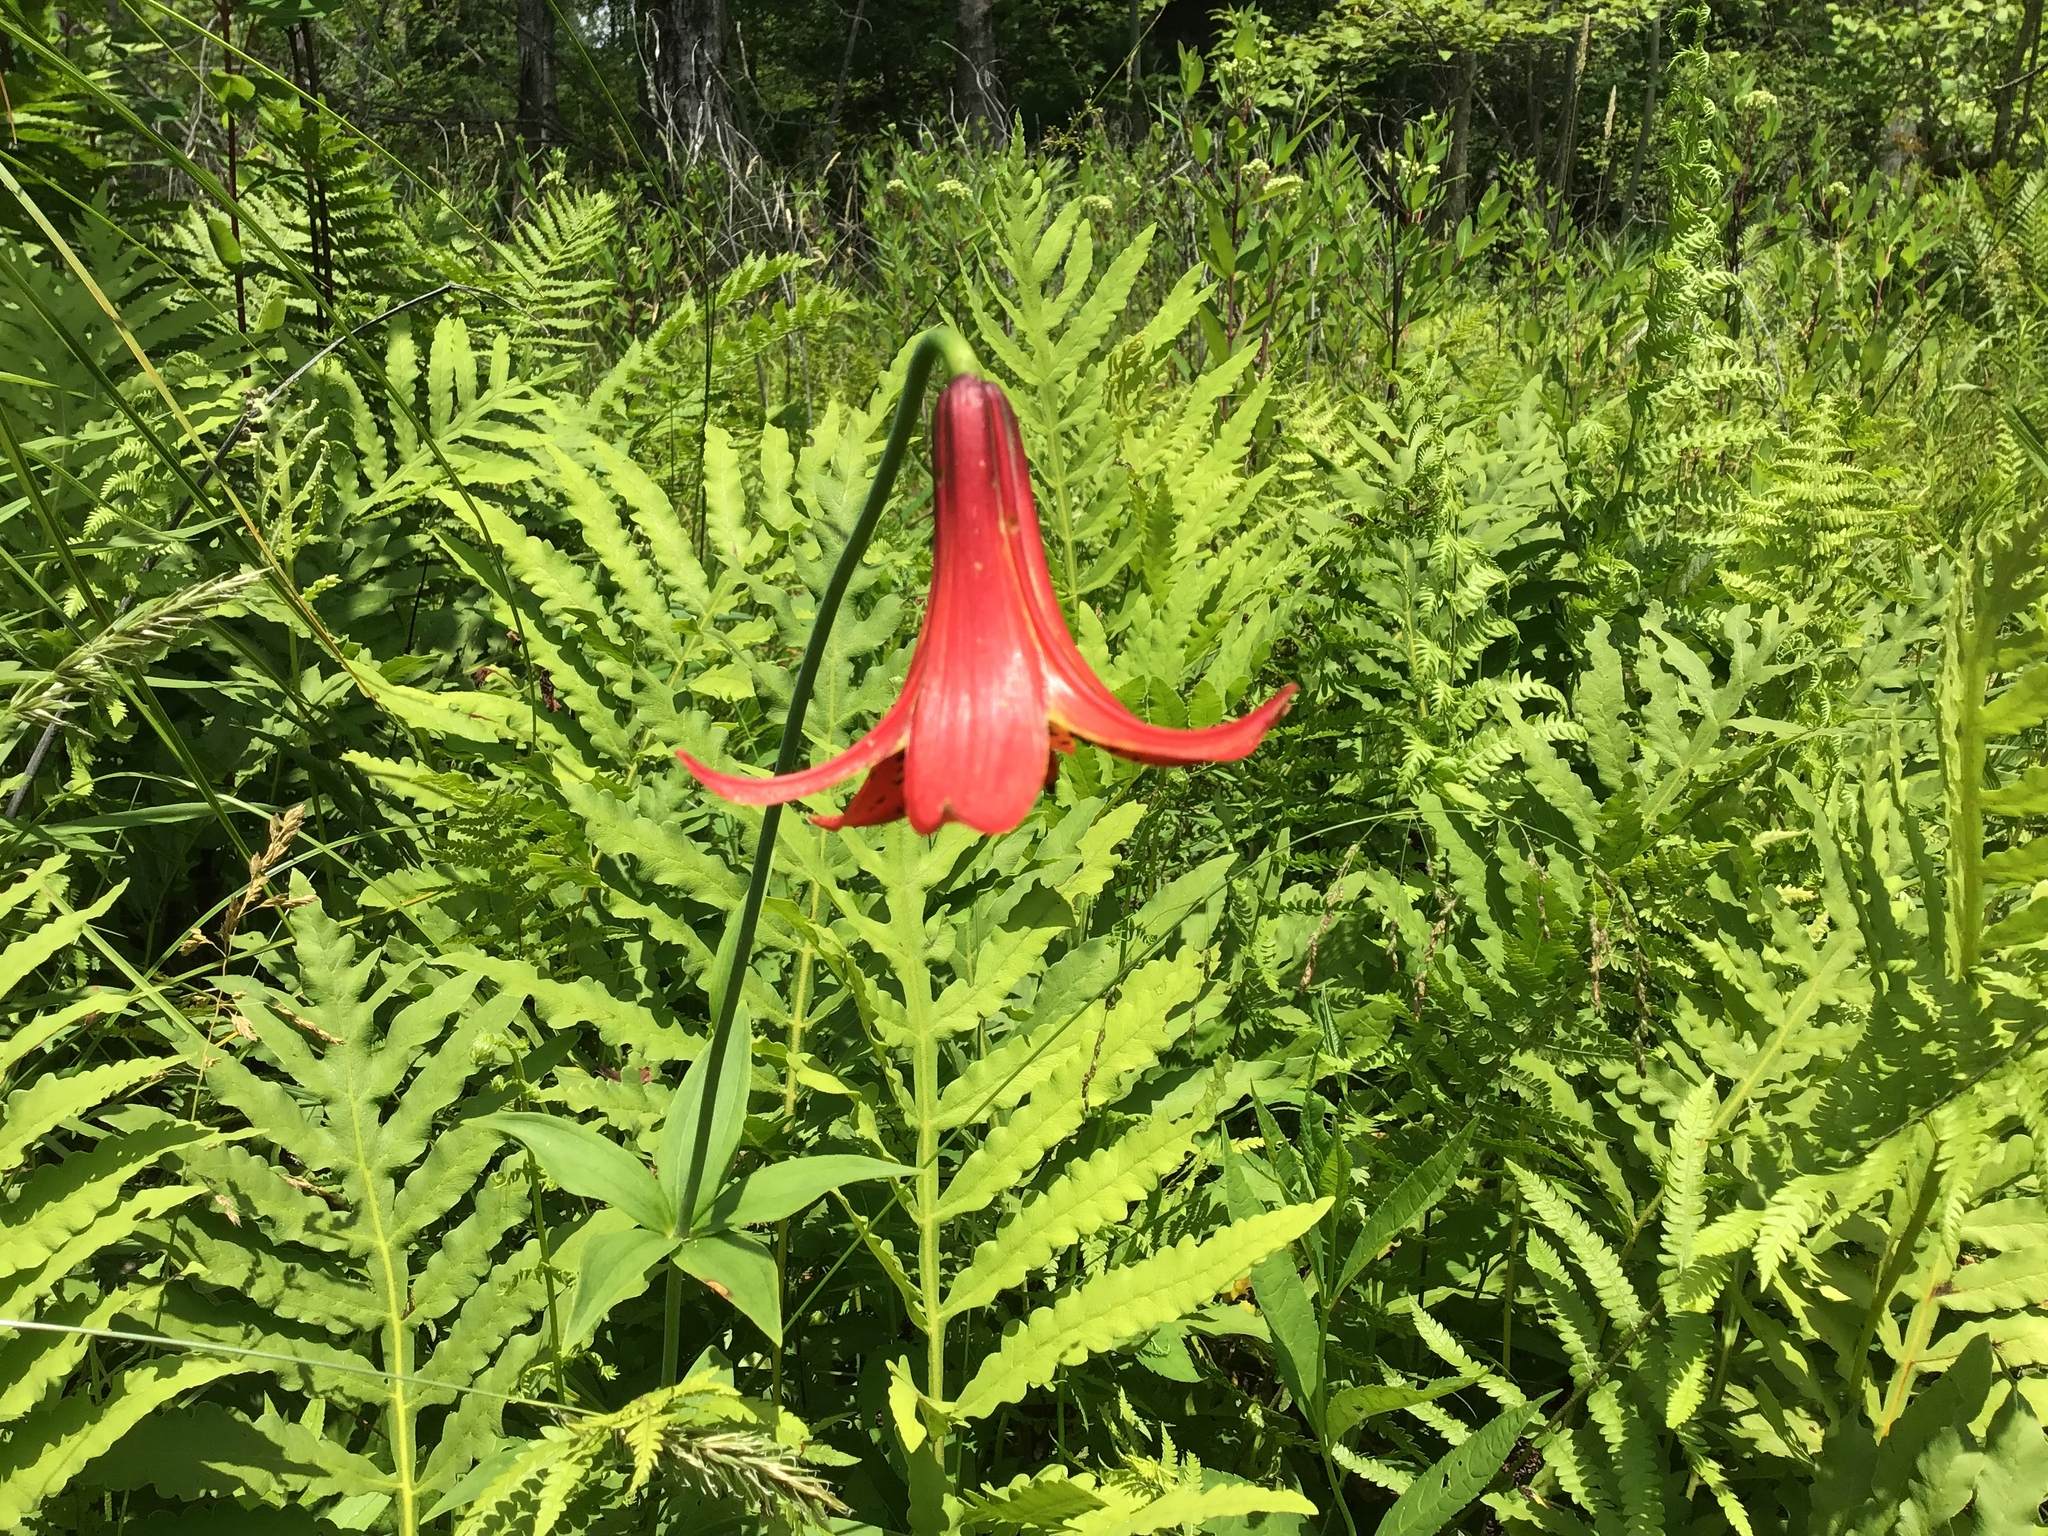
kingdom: Plantae
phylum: Tracheophyta
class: Liliopsida
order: Liliales
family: Liliaceae
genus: Lilium
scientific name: Lilium canadense
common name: Canada lily
